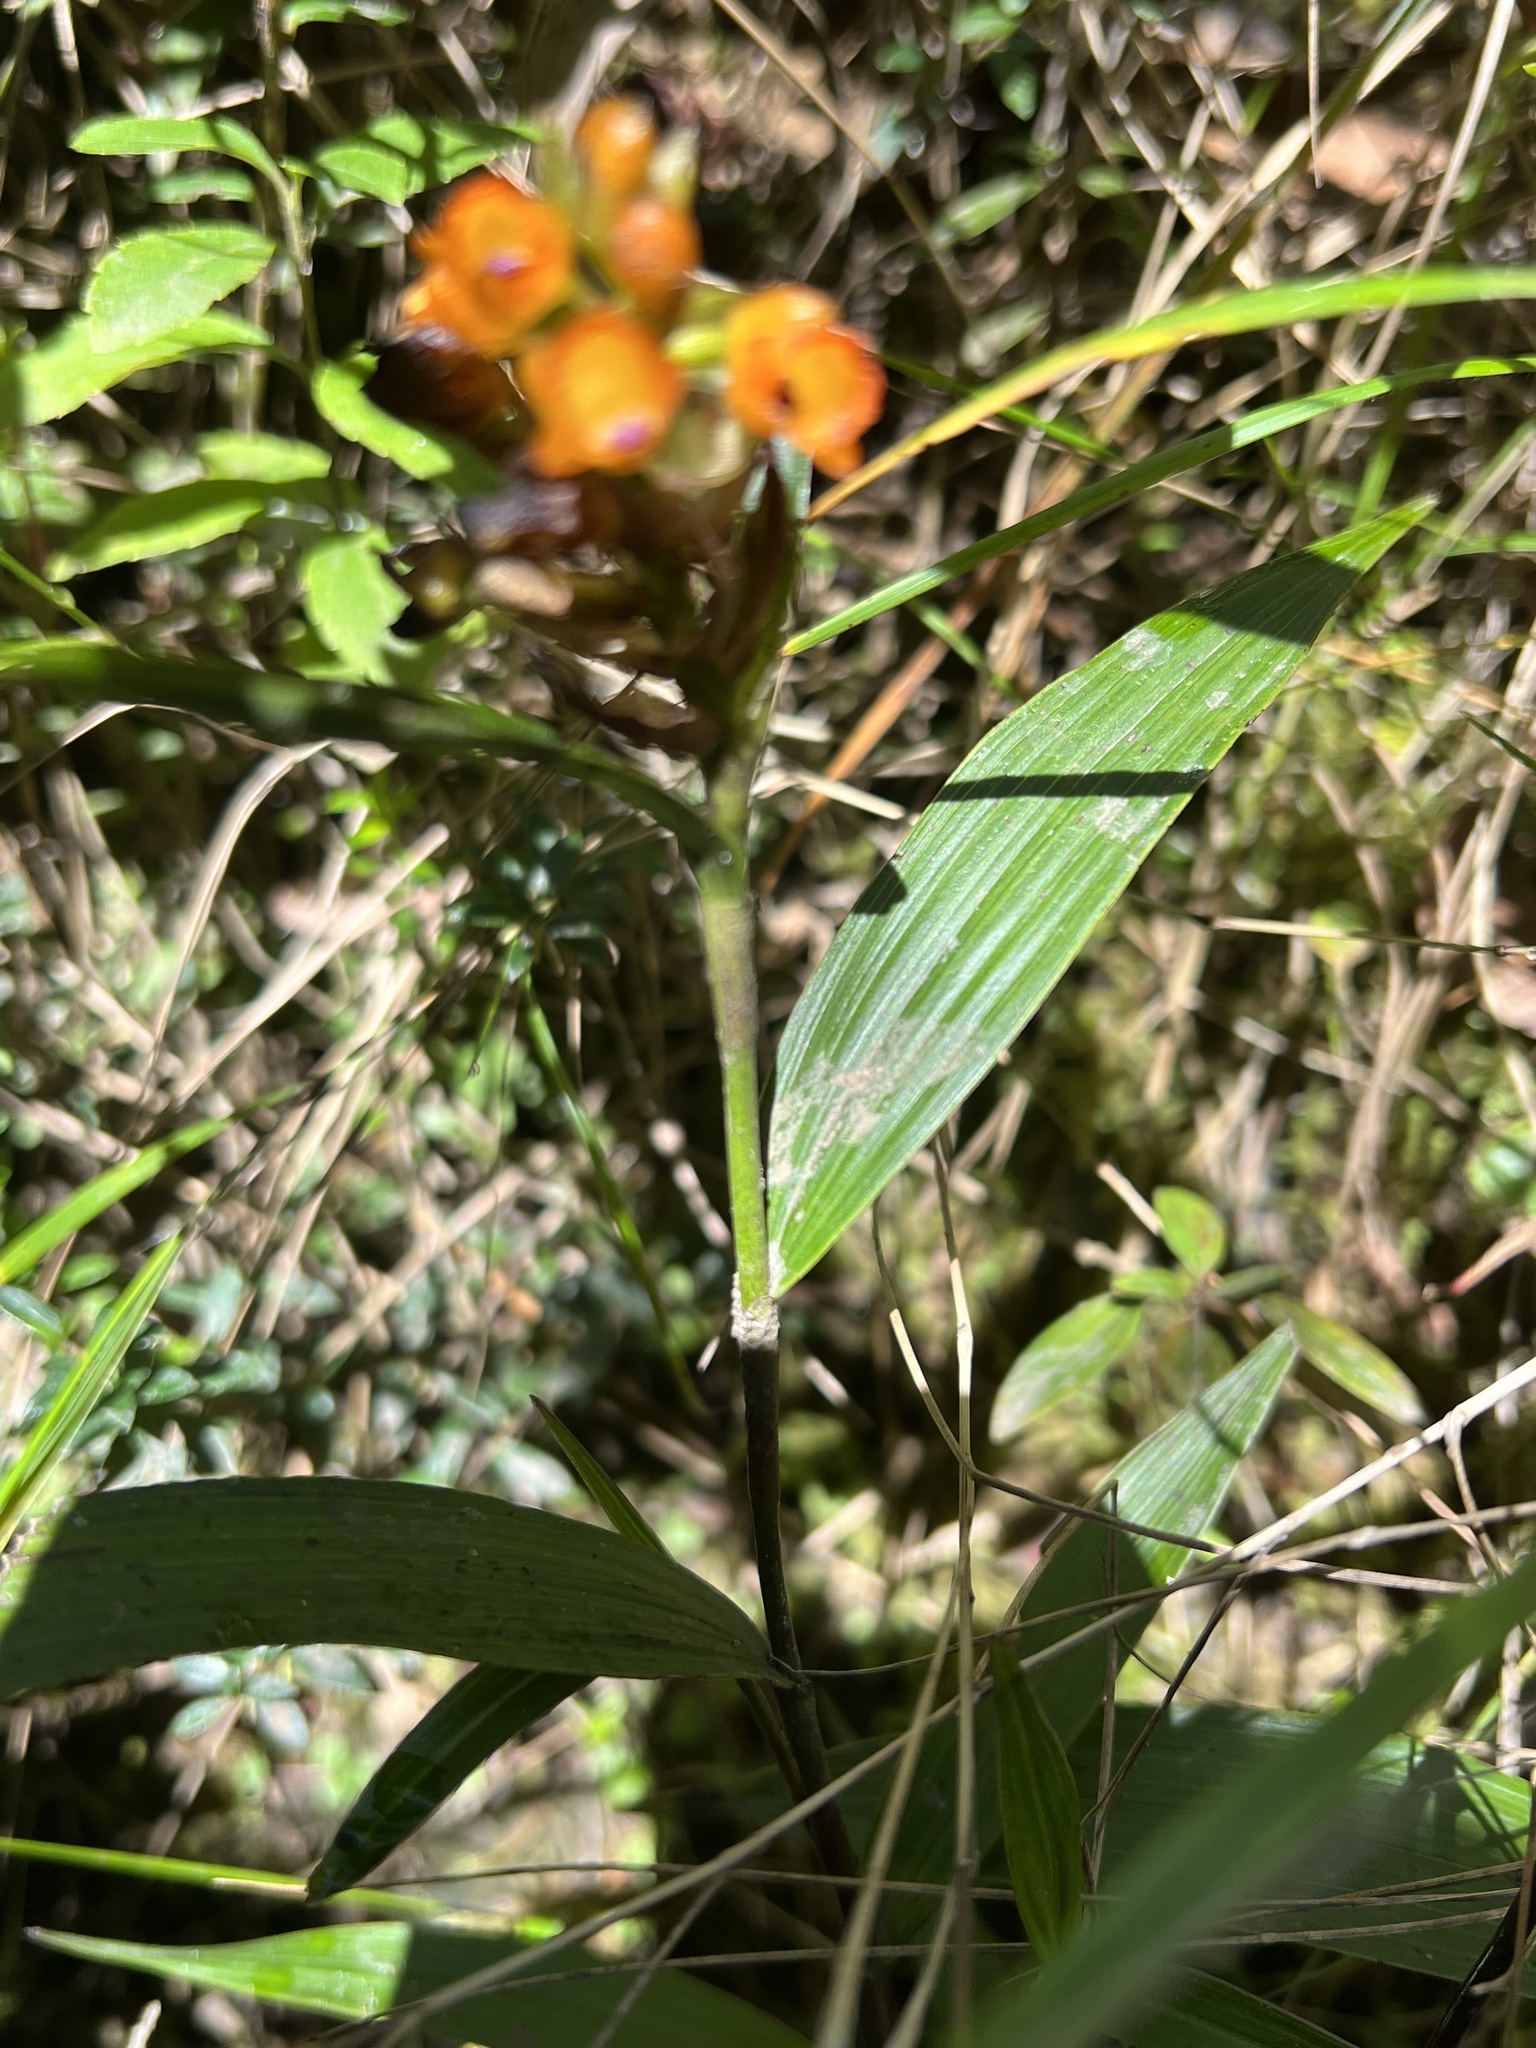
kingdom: Plantae
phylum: Tracheophyta
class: Liliopsida
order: Asparagales
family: Orchidaceae
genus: Elleanthus
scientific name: Elleanthus aurantiacus
